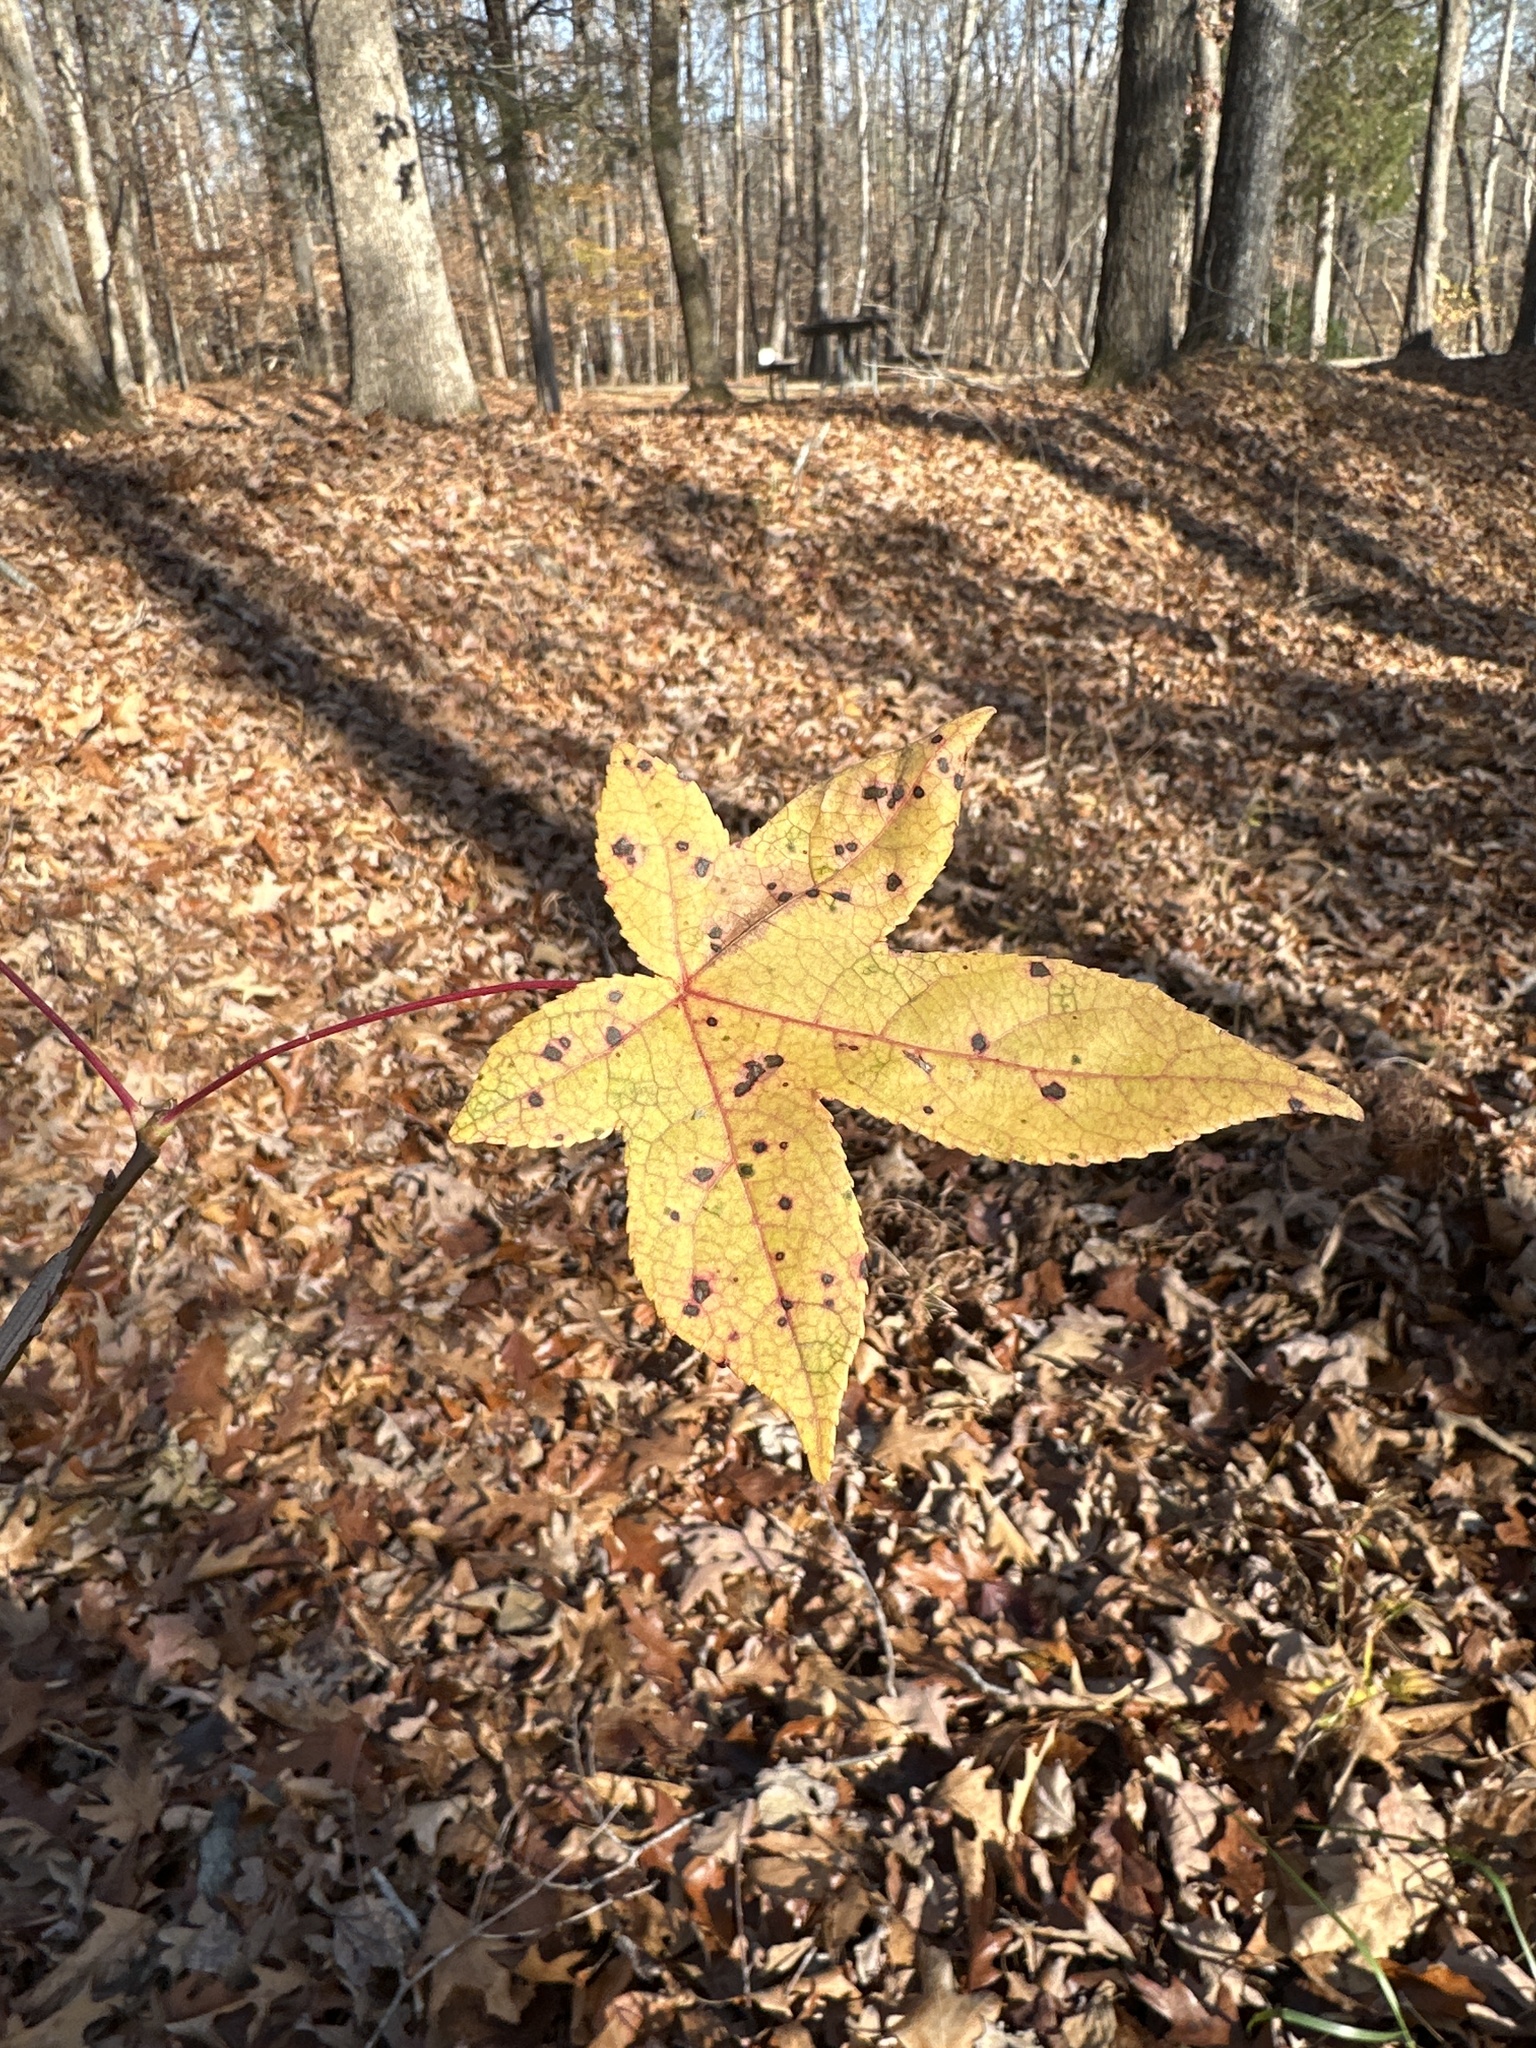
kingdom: Plantae
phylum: Tracheophyta
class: Magnoliopsida
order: Saxifragales
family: Altingiaceae
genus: Liquidambar
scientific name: Liquidambar styraciflua
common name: Sweet gum
